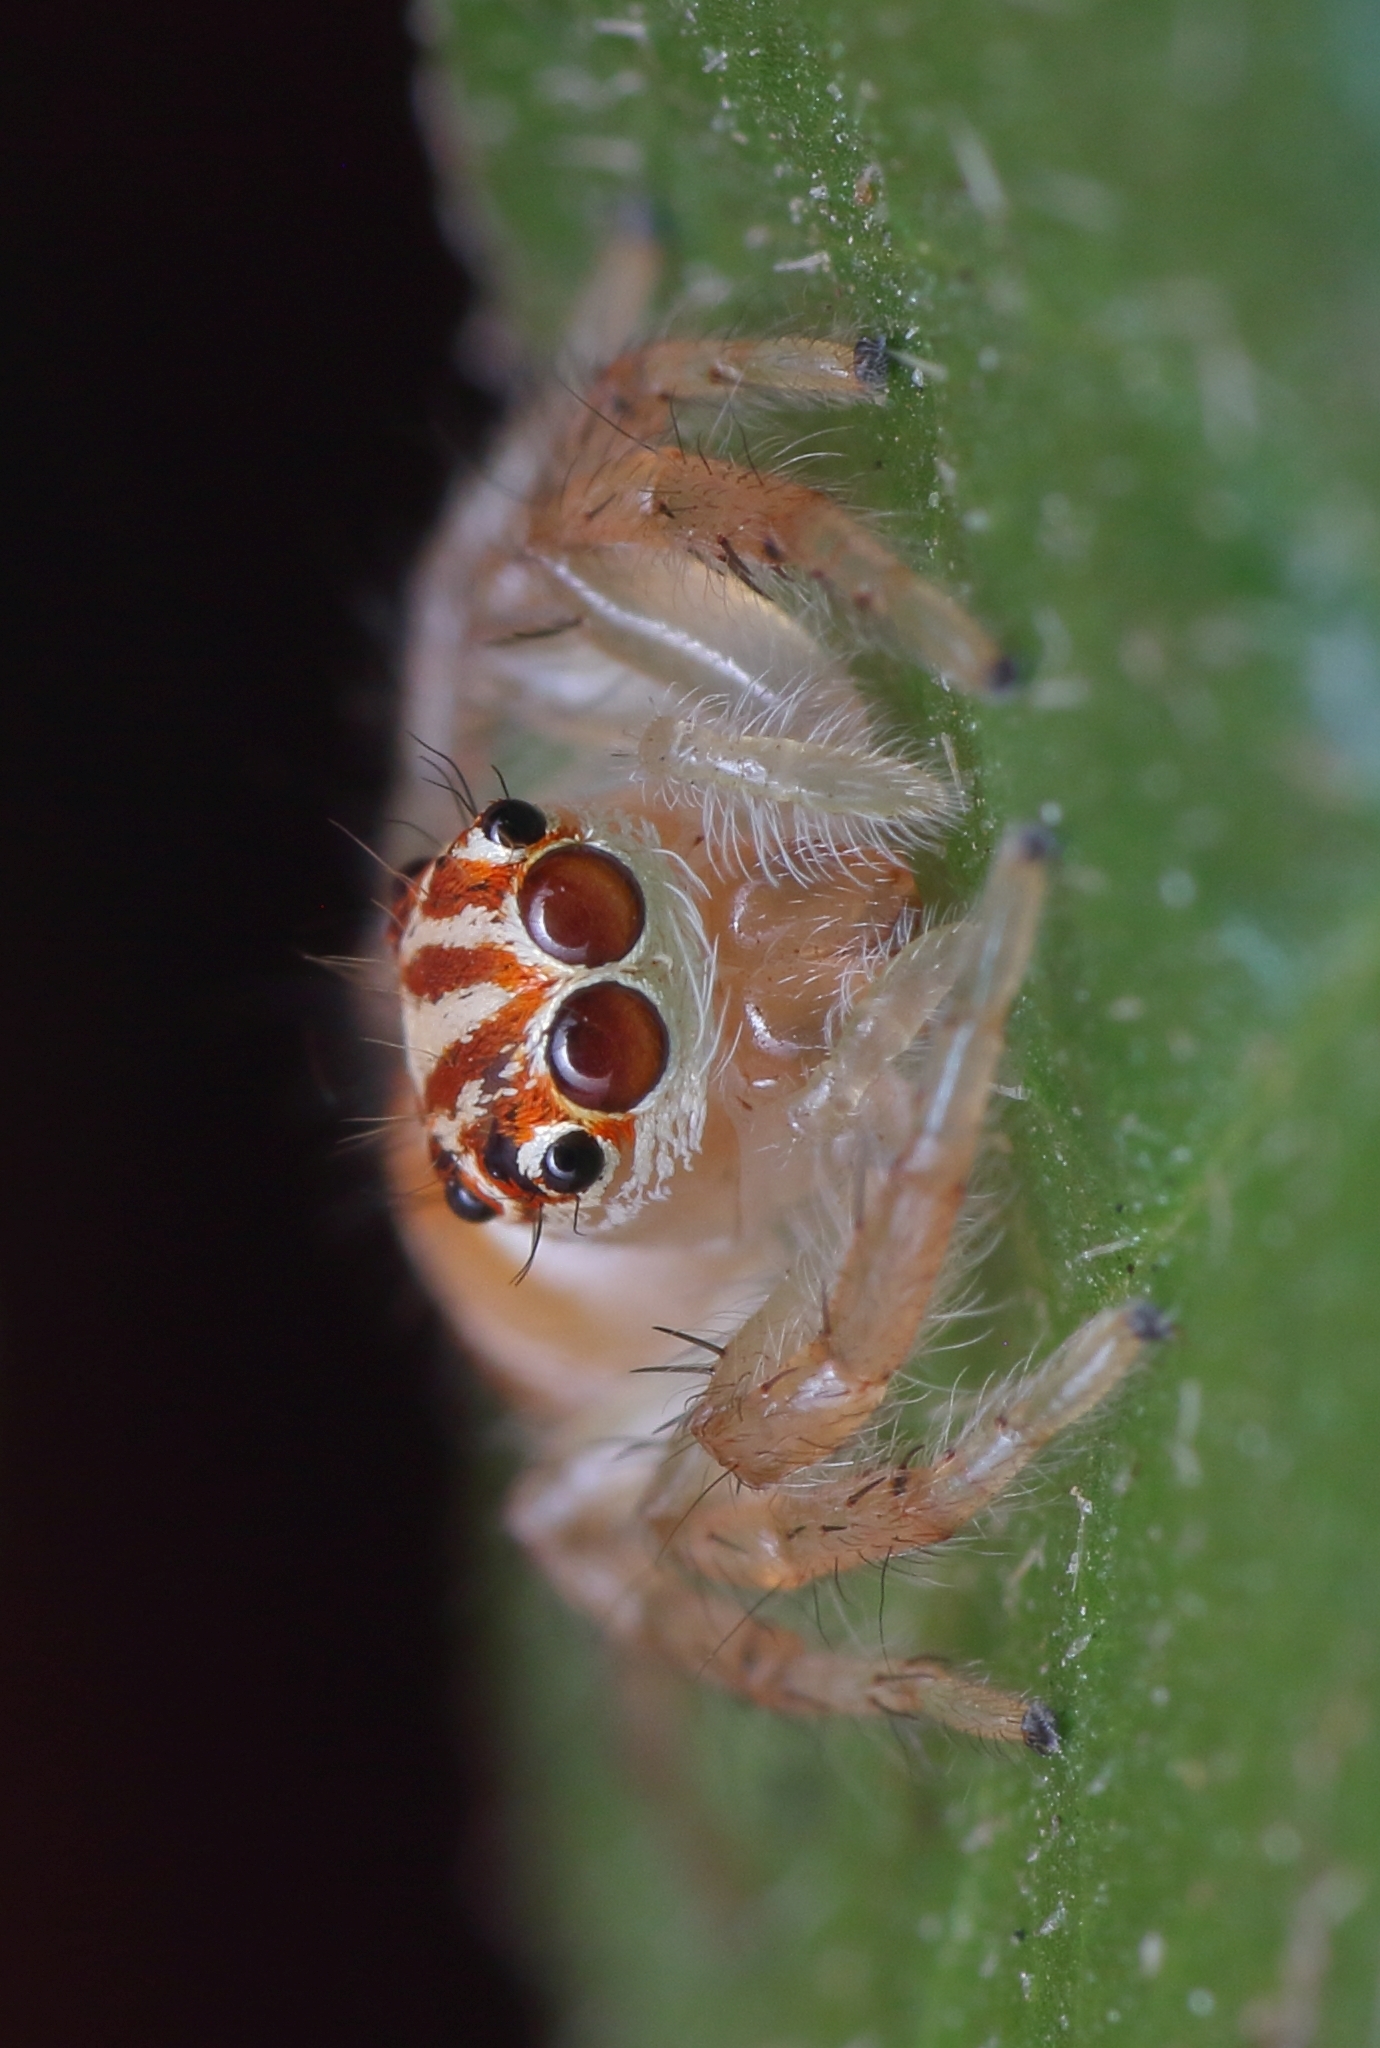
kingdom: Animalia
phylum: Arthropoda
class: Arachnida
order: Araneae
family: Salticidae
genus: Brancus
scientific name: Brancus mustelus
